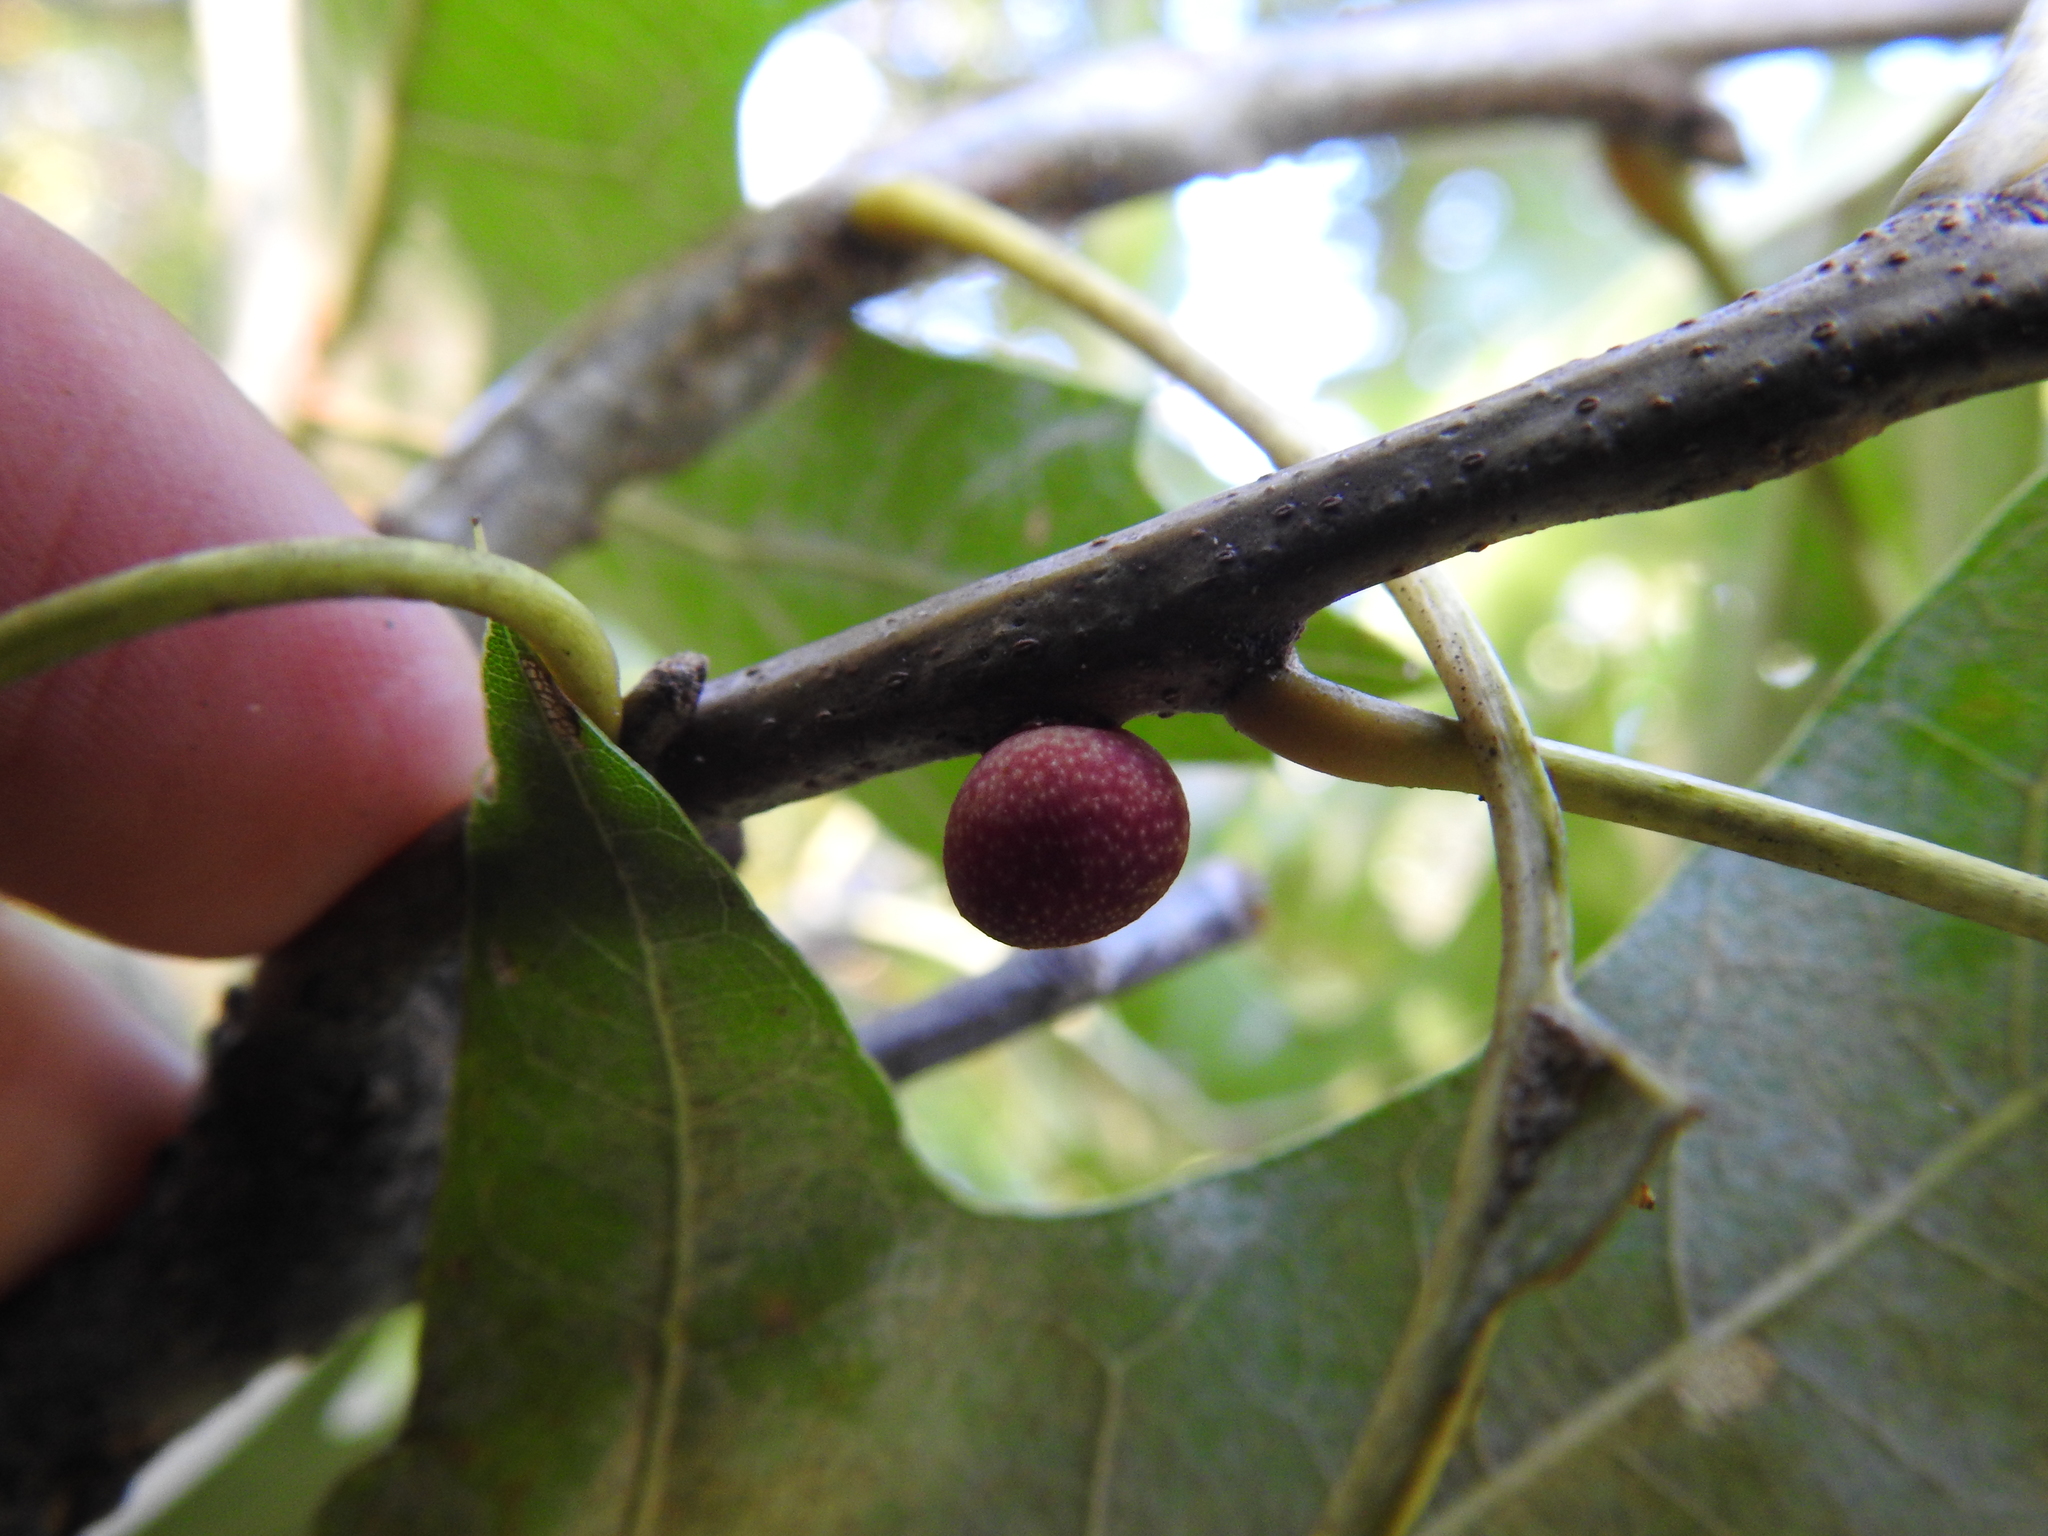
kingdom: Animalia
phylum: Arthropoda
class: Insecta
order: Hymenoptera
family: Cynipidae
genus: Kokkocynips
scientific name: Kokkocynips imbricariae
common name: Banded bullet gall wasp
